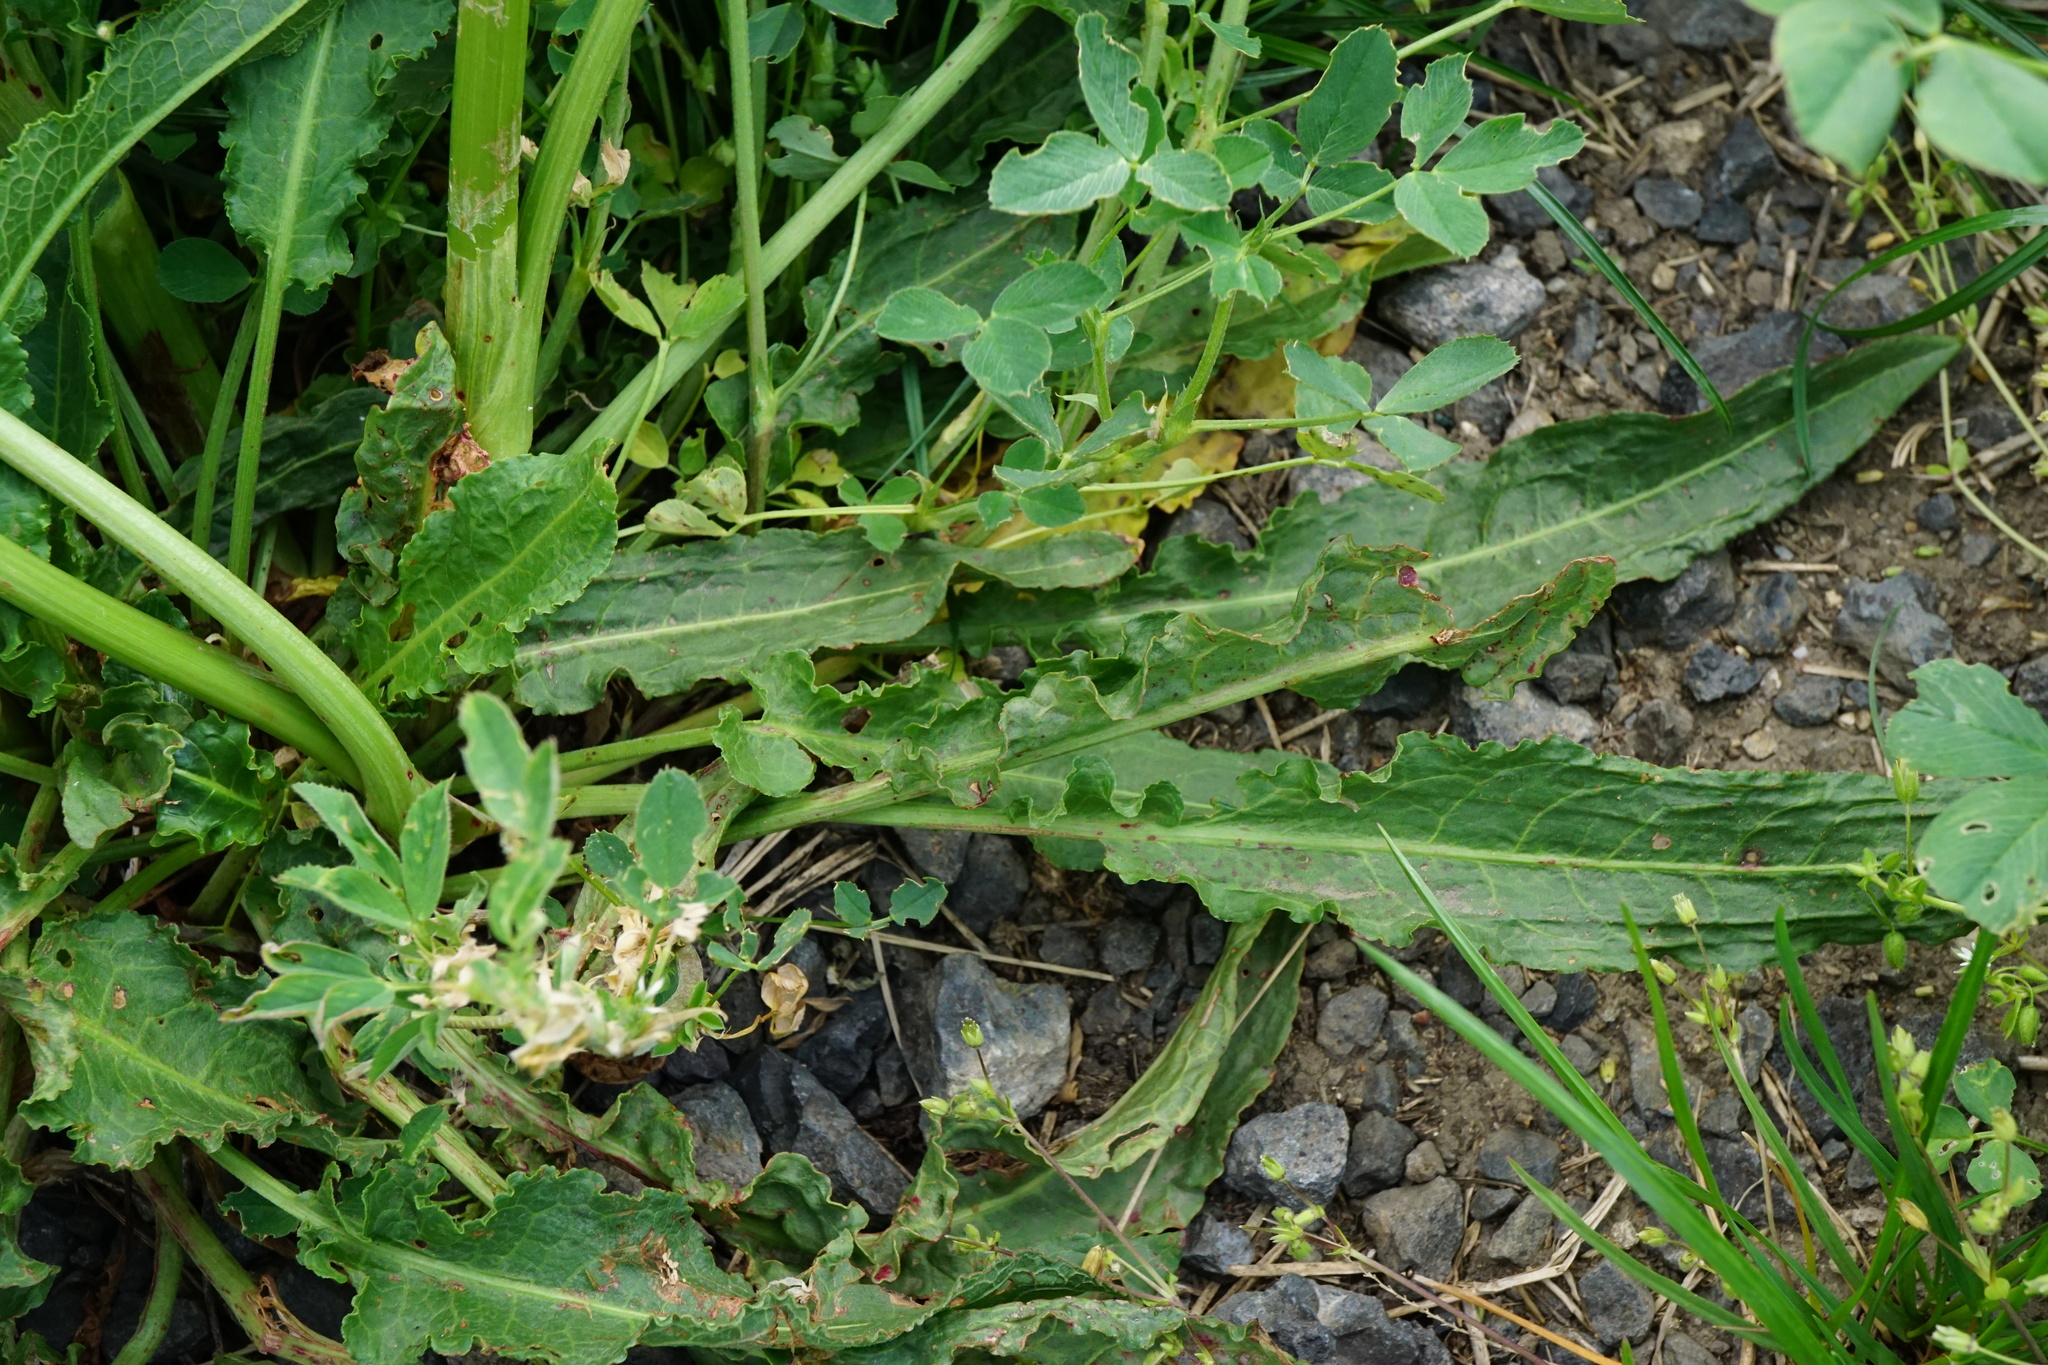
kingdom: Plantae
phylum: Tracheophyta
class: Magnoliopsida
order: Caryophyllales
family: Polygonaceae
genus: Rumex
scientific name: Rumex crispus
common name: Curled dock
